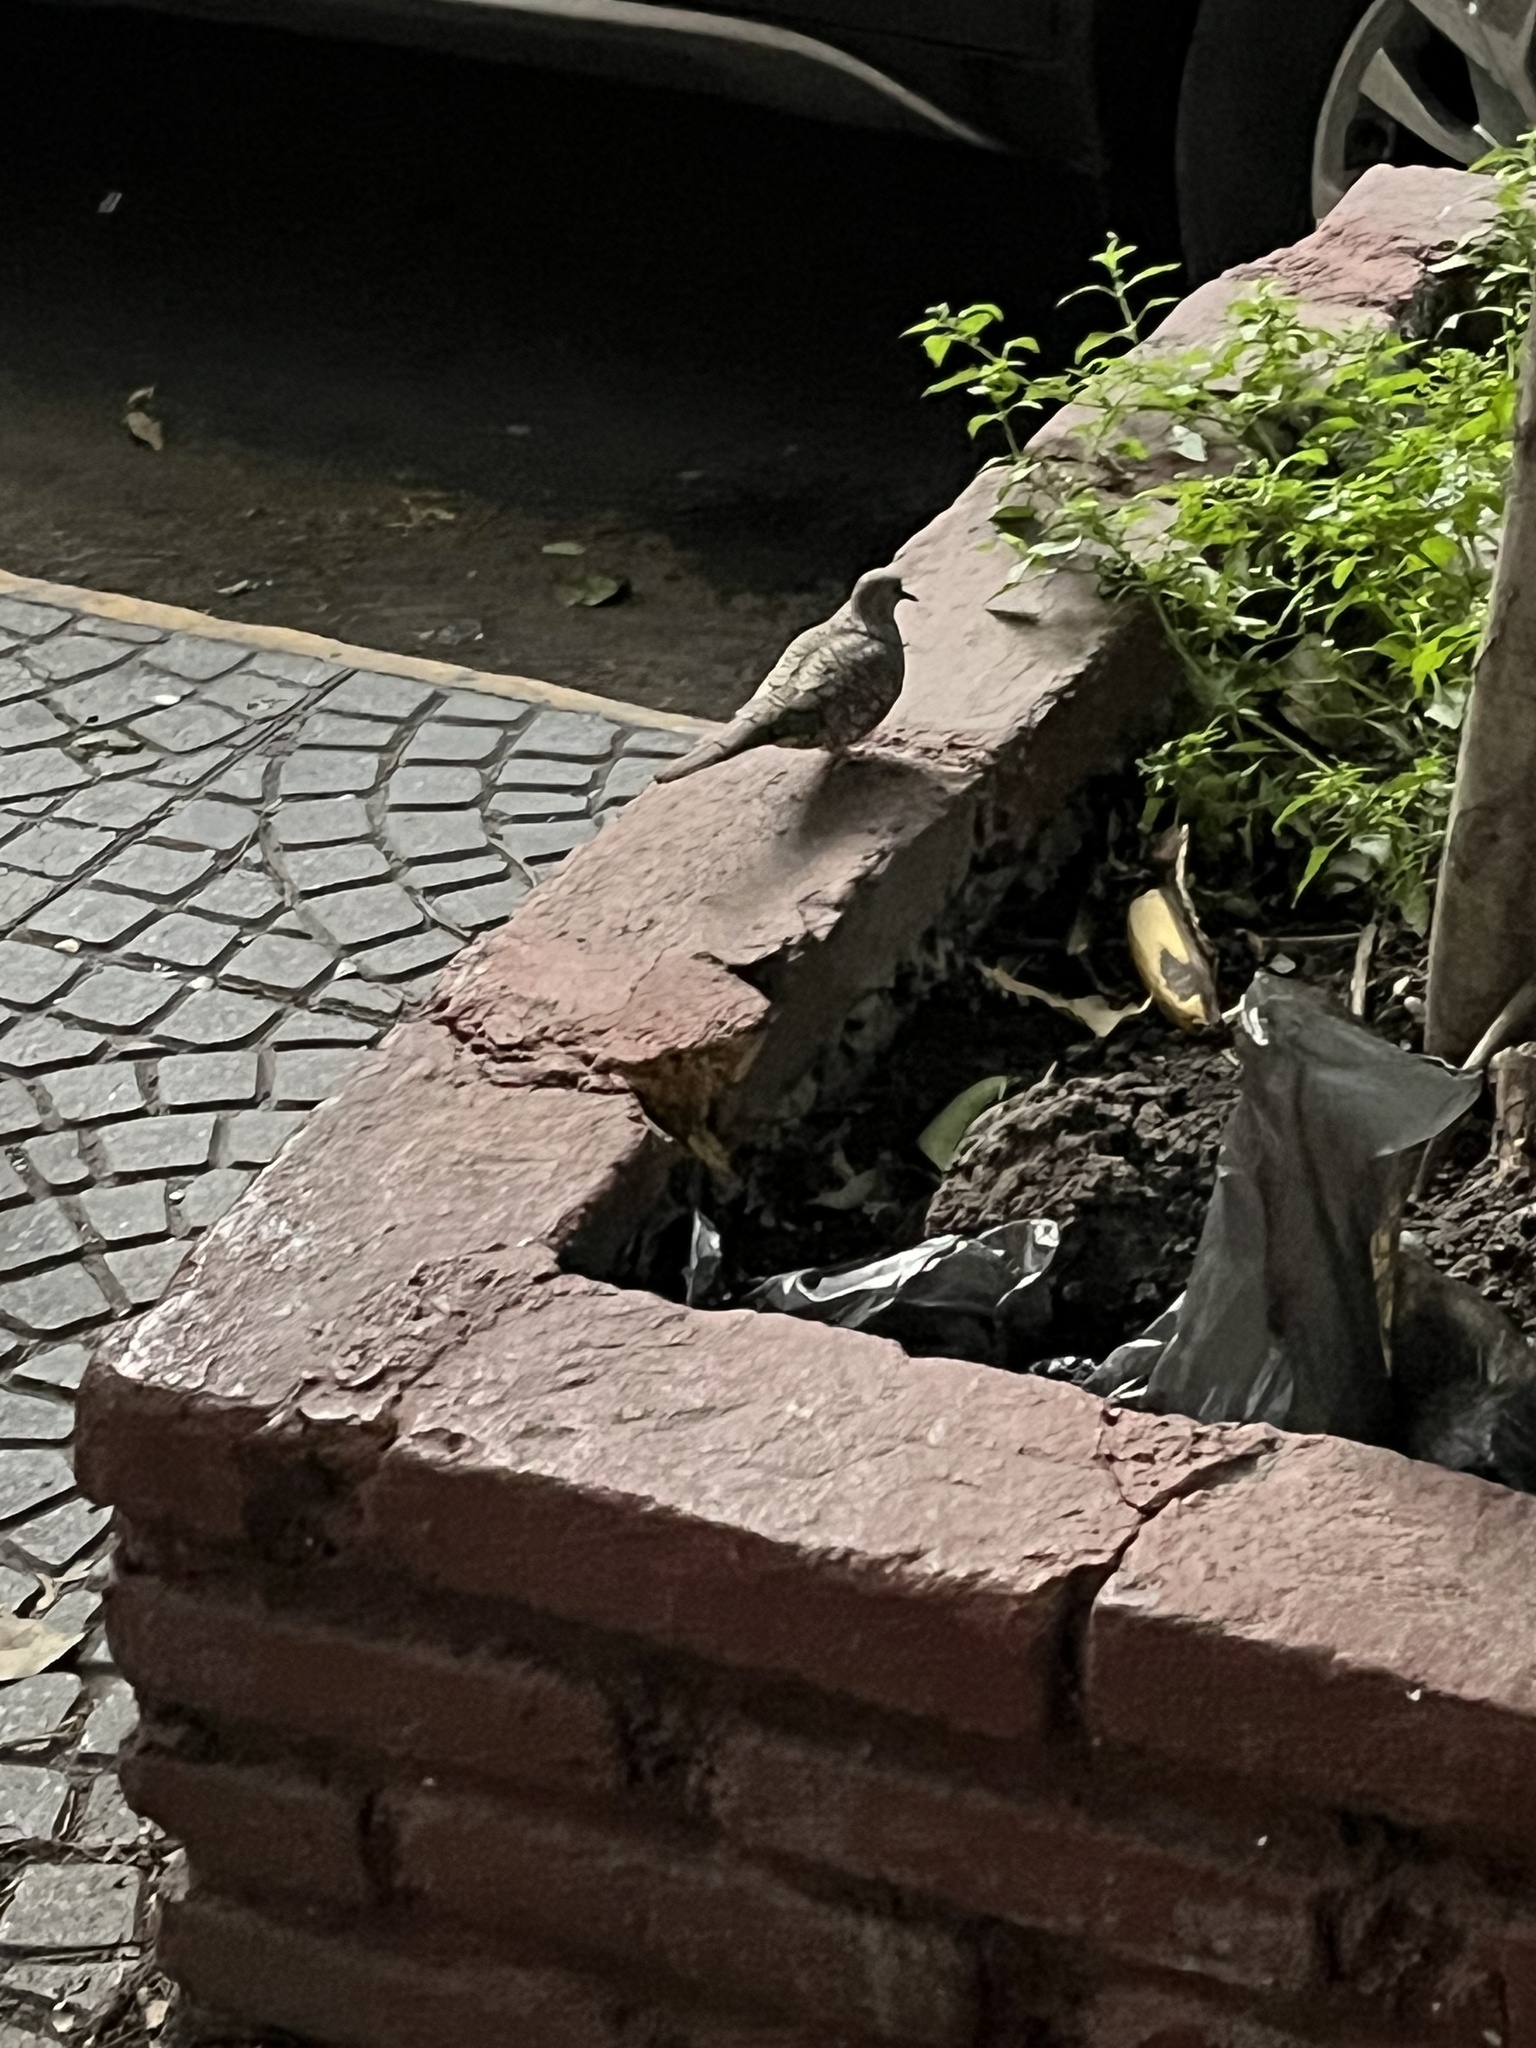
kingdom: Animalia
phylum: Chordata
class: Aves
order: Columbiformes
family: Columbidae
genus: Columbina
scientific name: Columbina inca
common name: Inca dove
